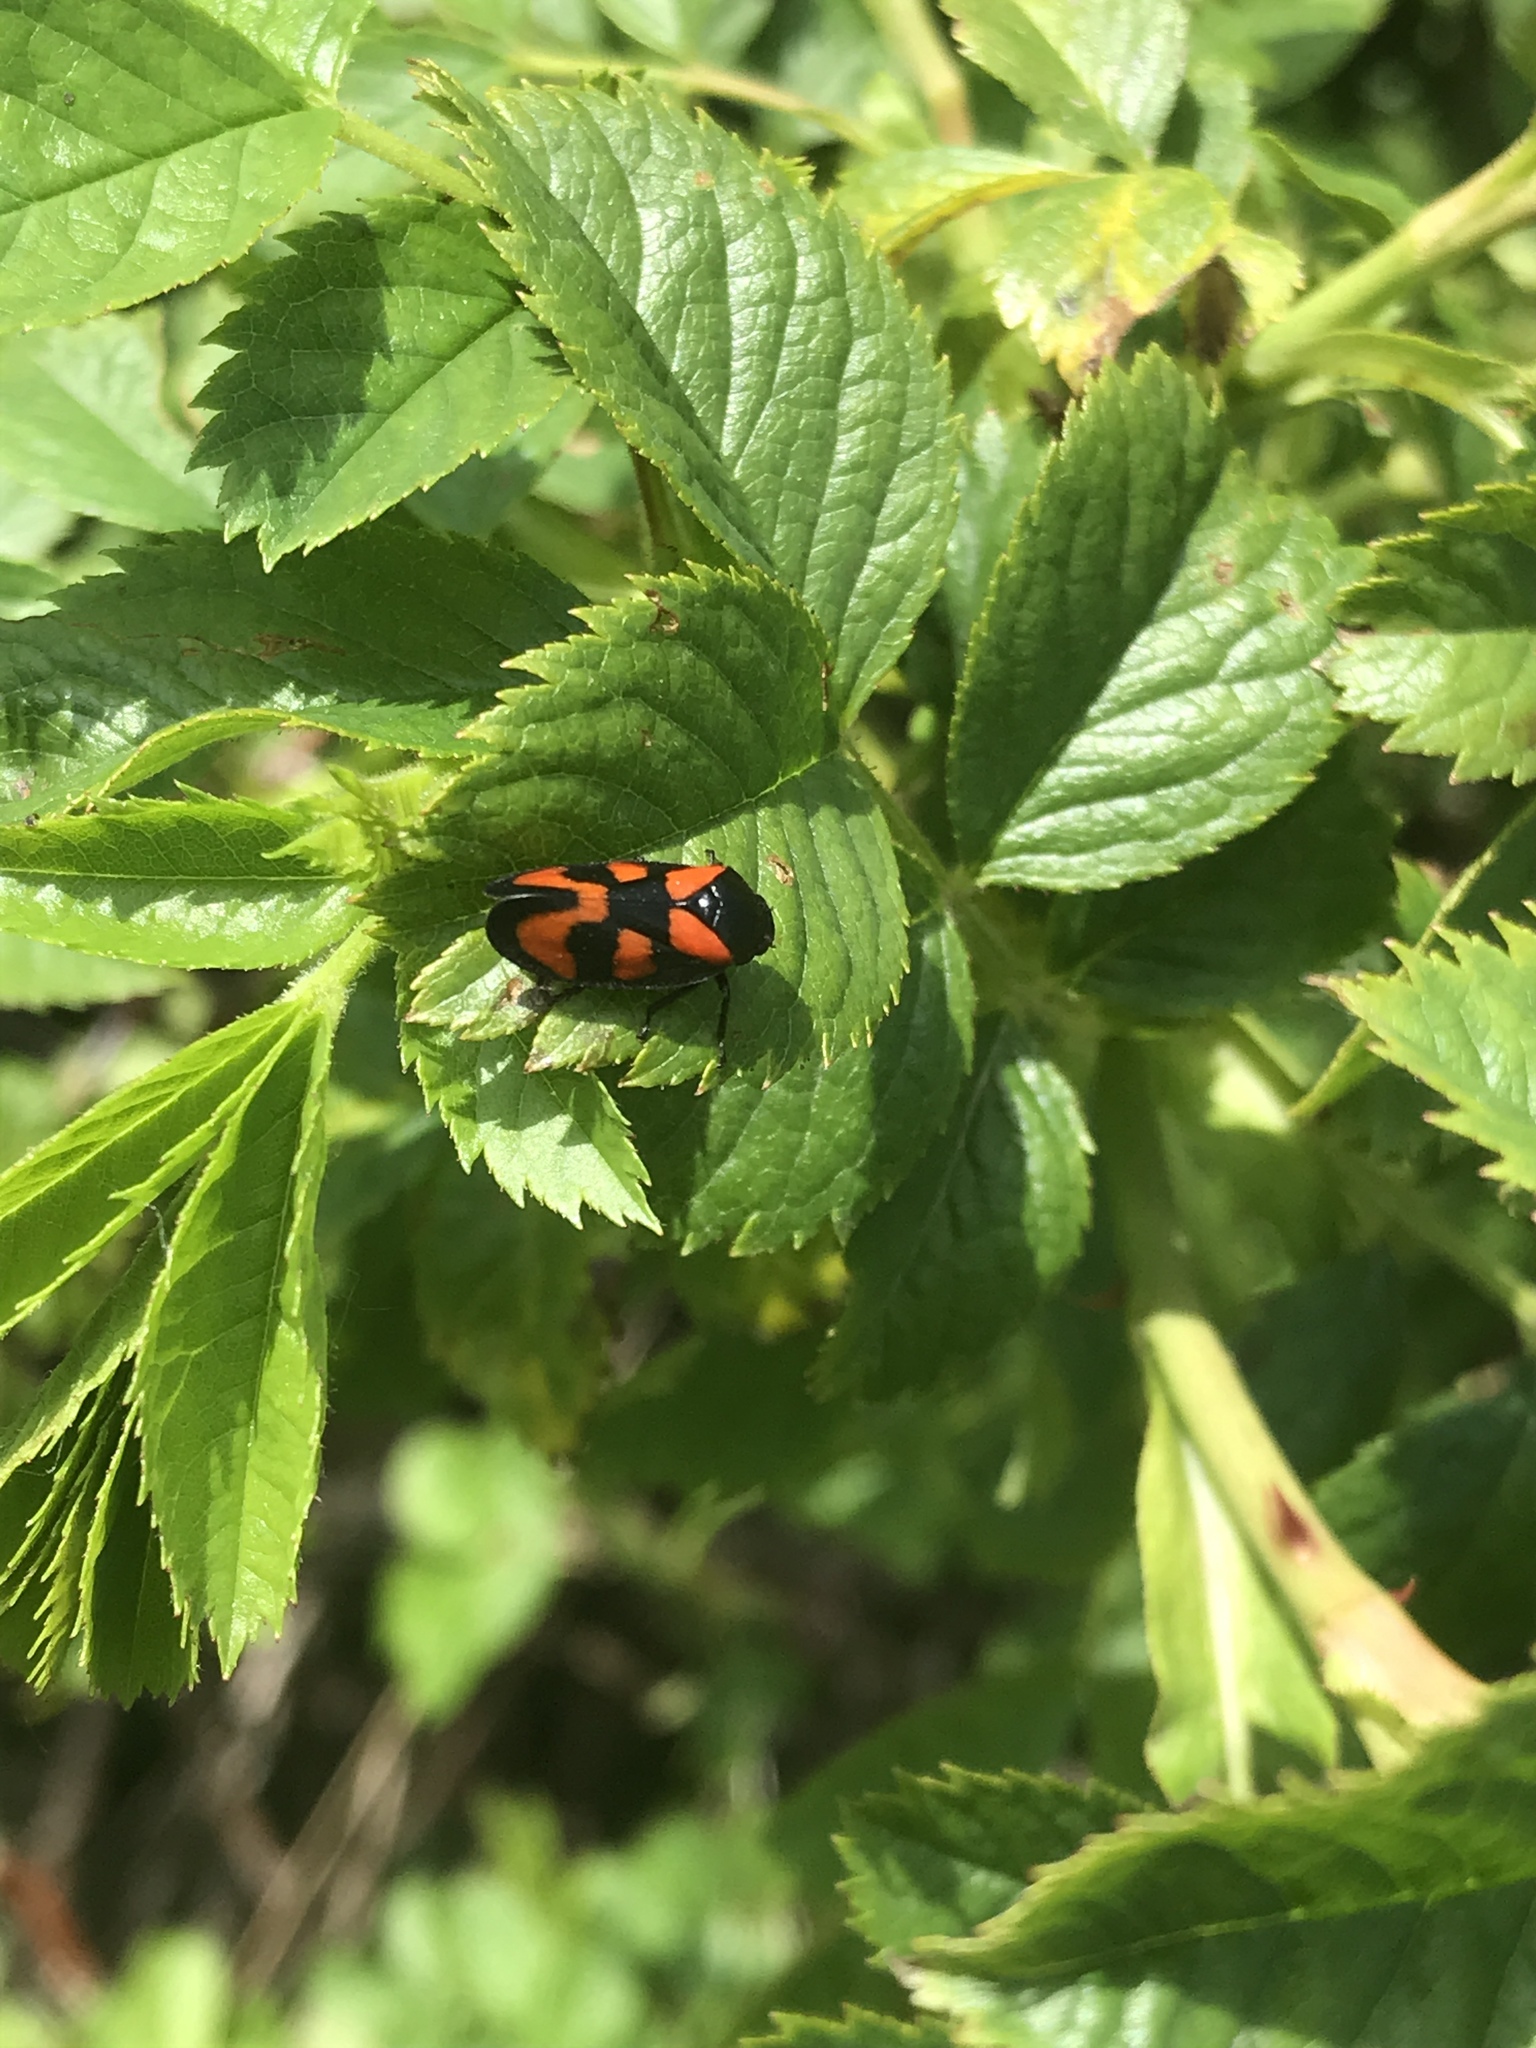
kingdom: Animalia
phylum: Arthropoda
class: Insecta
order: Hemiptera
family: Cercopidae
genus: Cercopis
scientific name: Cercopis vulnerata
